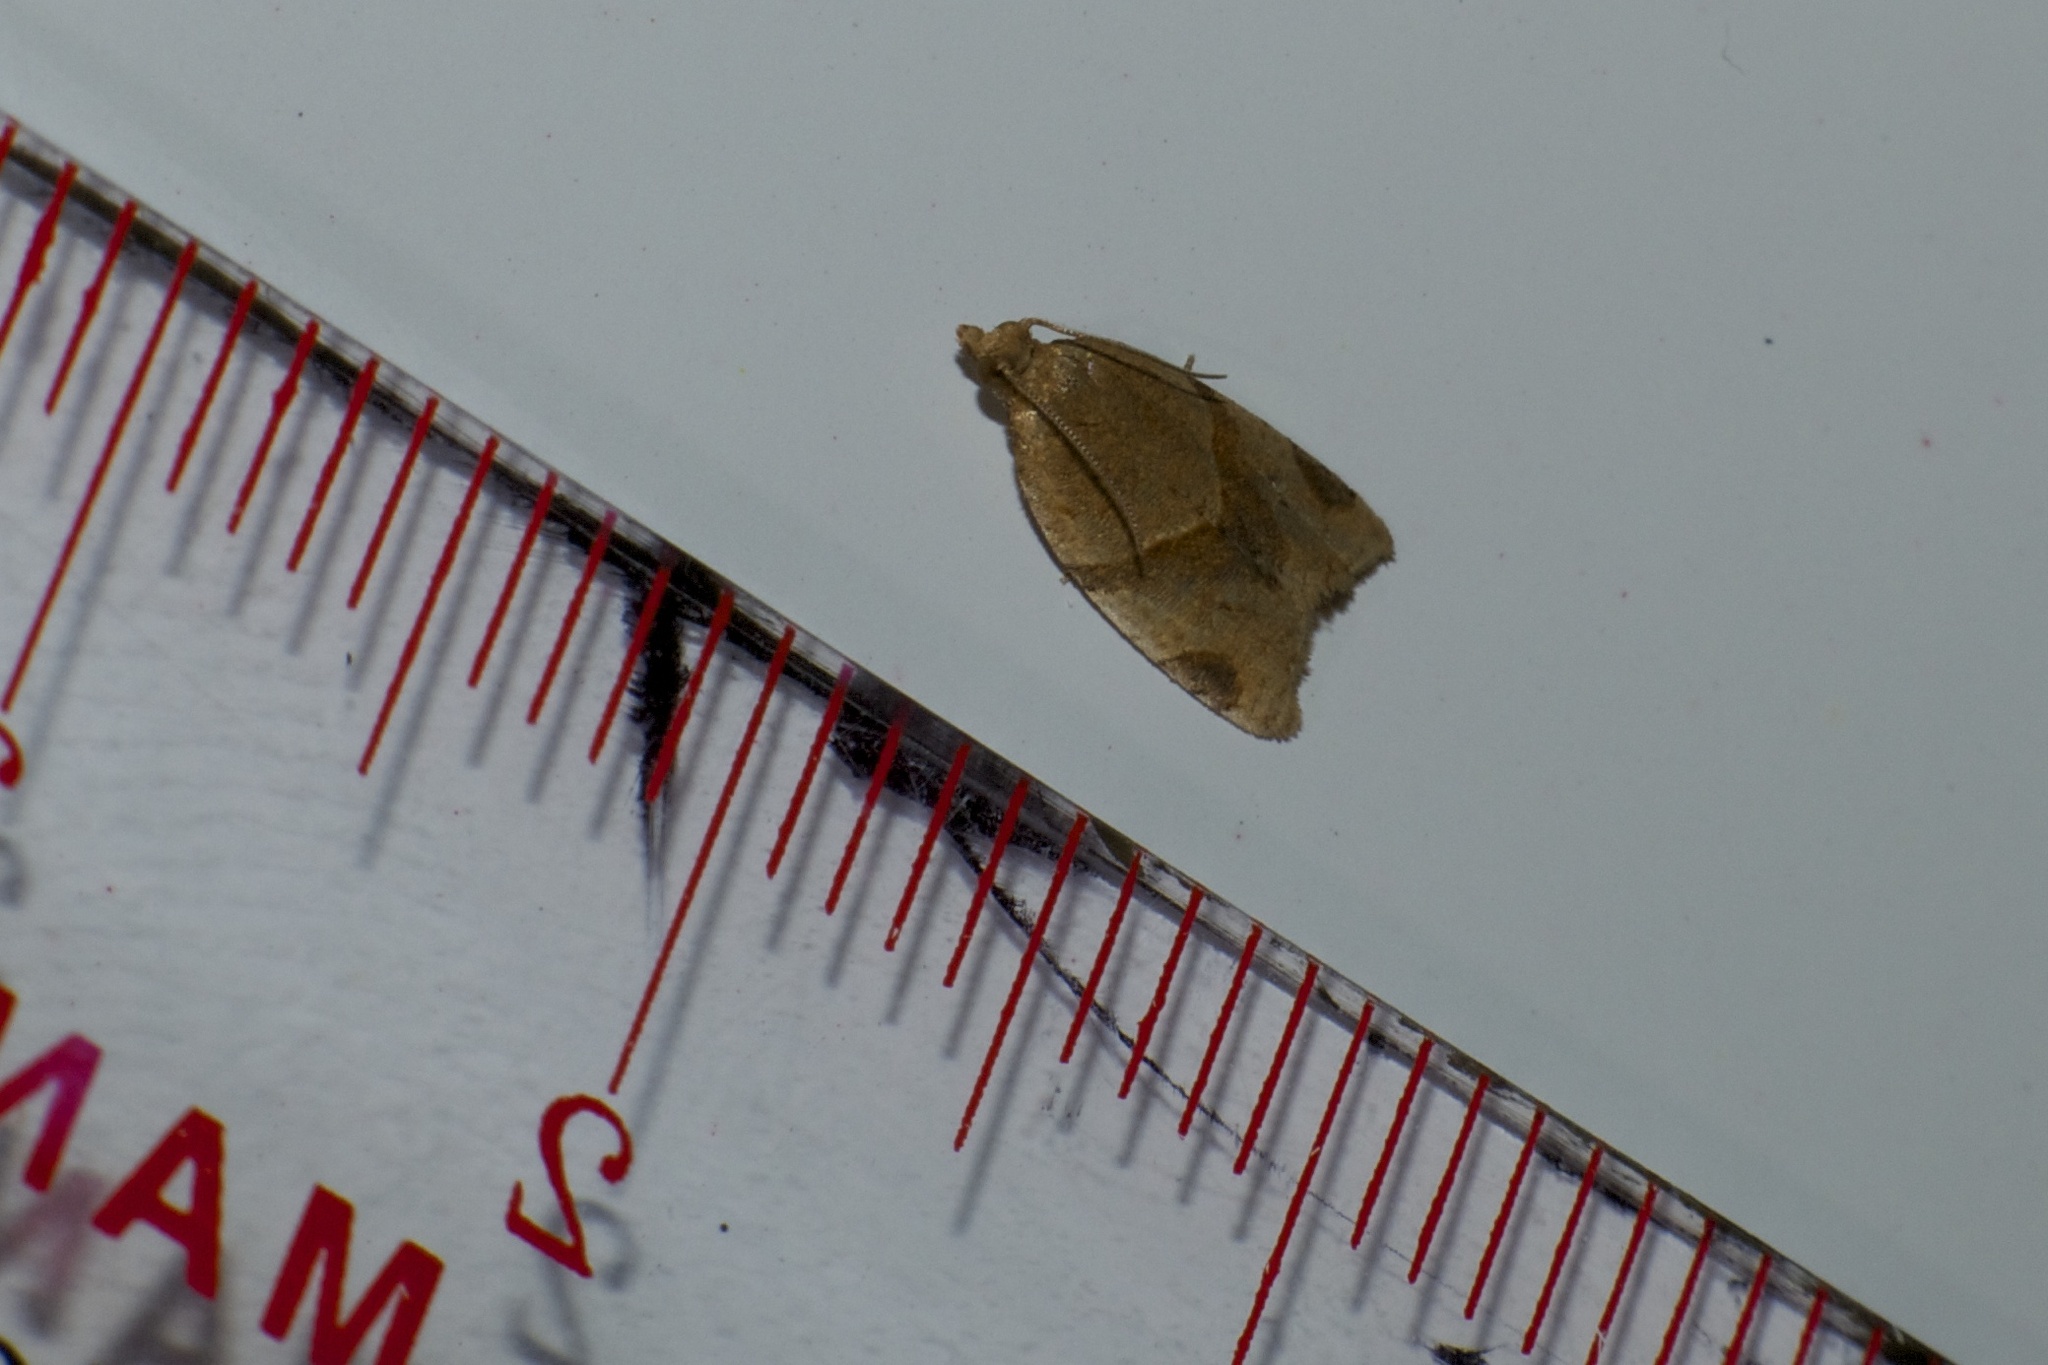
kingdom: Animalia
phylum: Arthropoda
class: Insecta
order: Lepidoptera
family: Tortricidae
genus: Clepsis
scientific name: Clepsis peritana
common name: Garden tortrix
